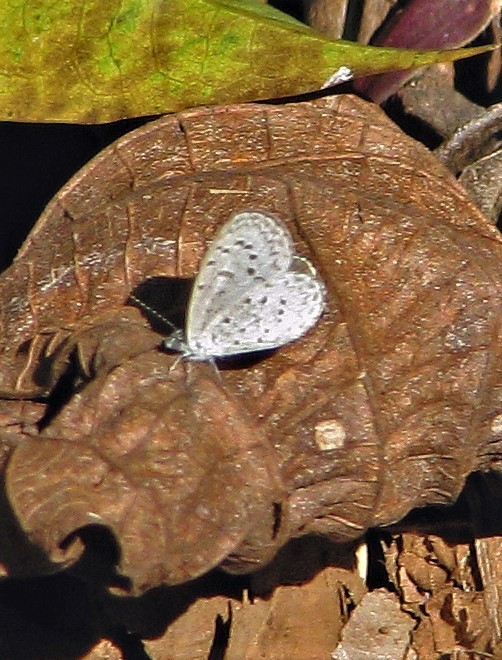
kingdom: Animalia
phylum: Arthropoda
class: Insecta
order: Lepidoptera
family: Lycaenidae
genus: Lycaena
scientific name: Lycaena cyna
